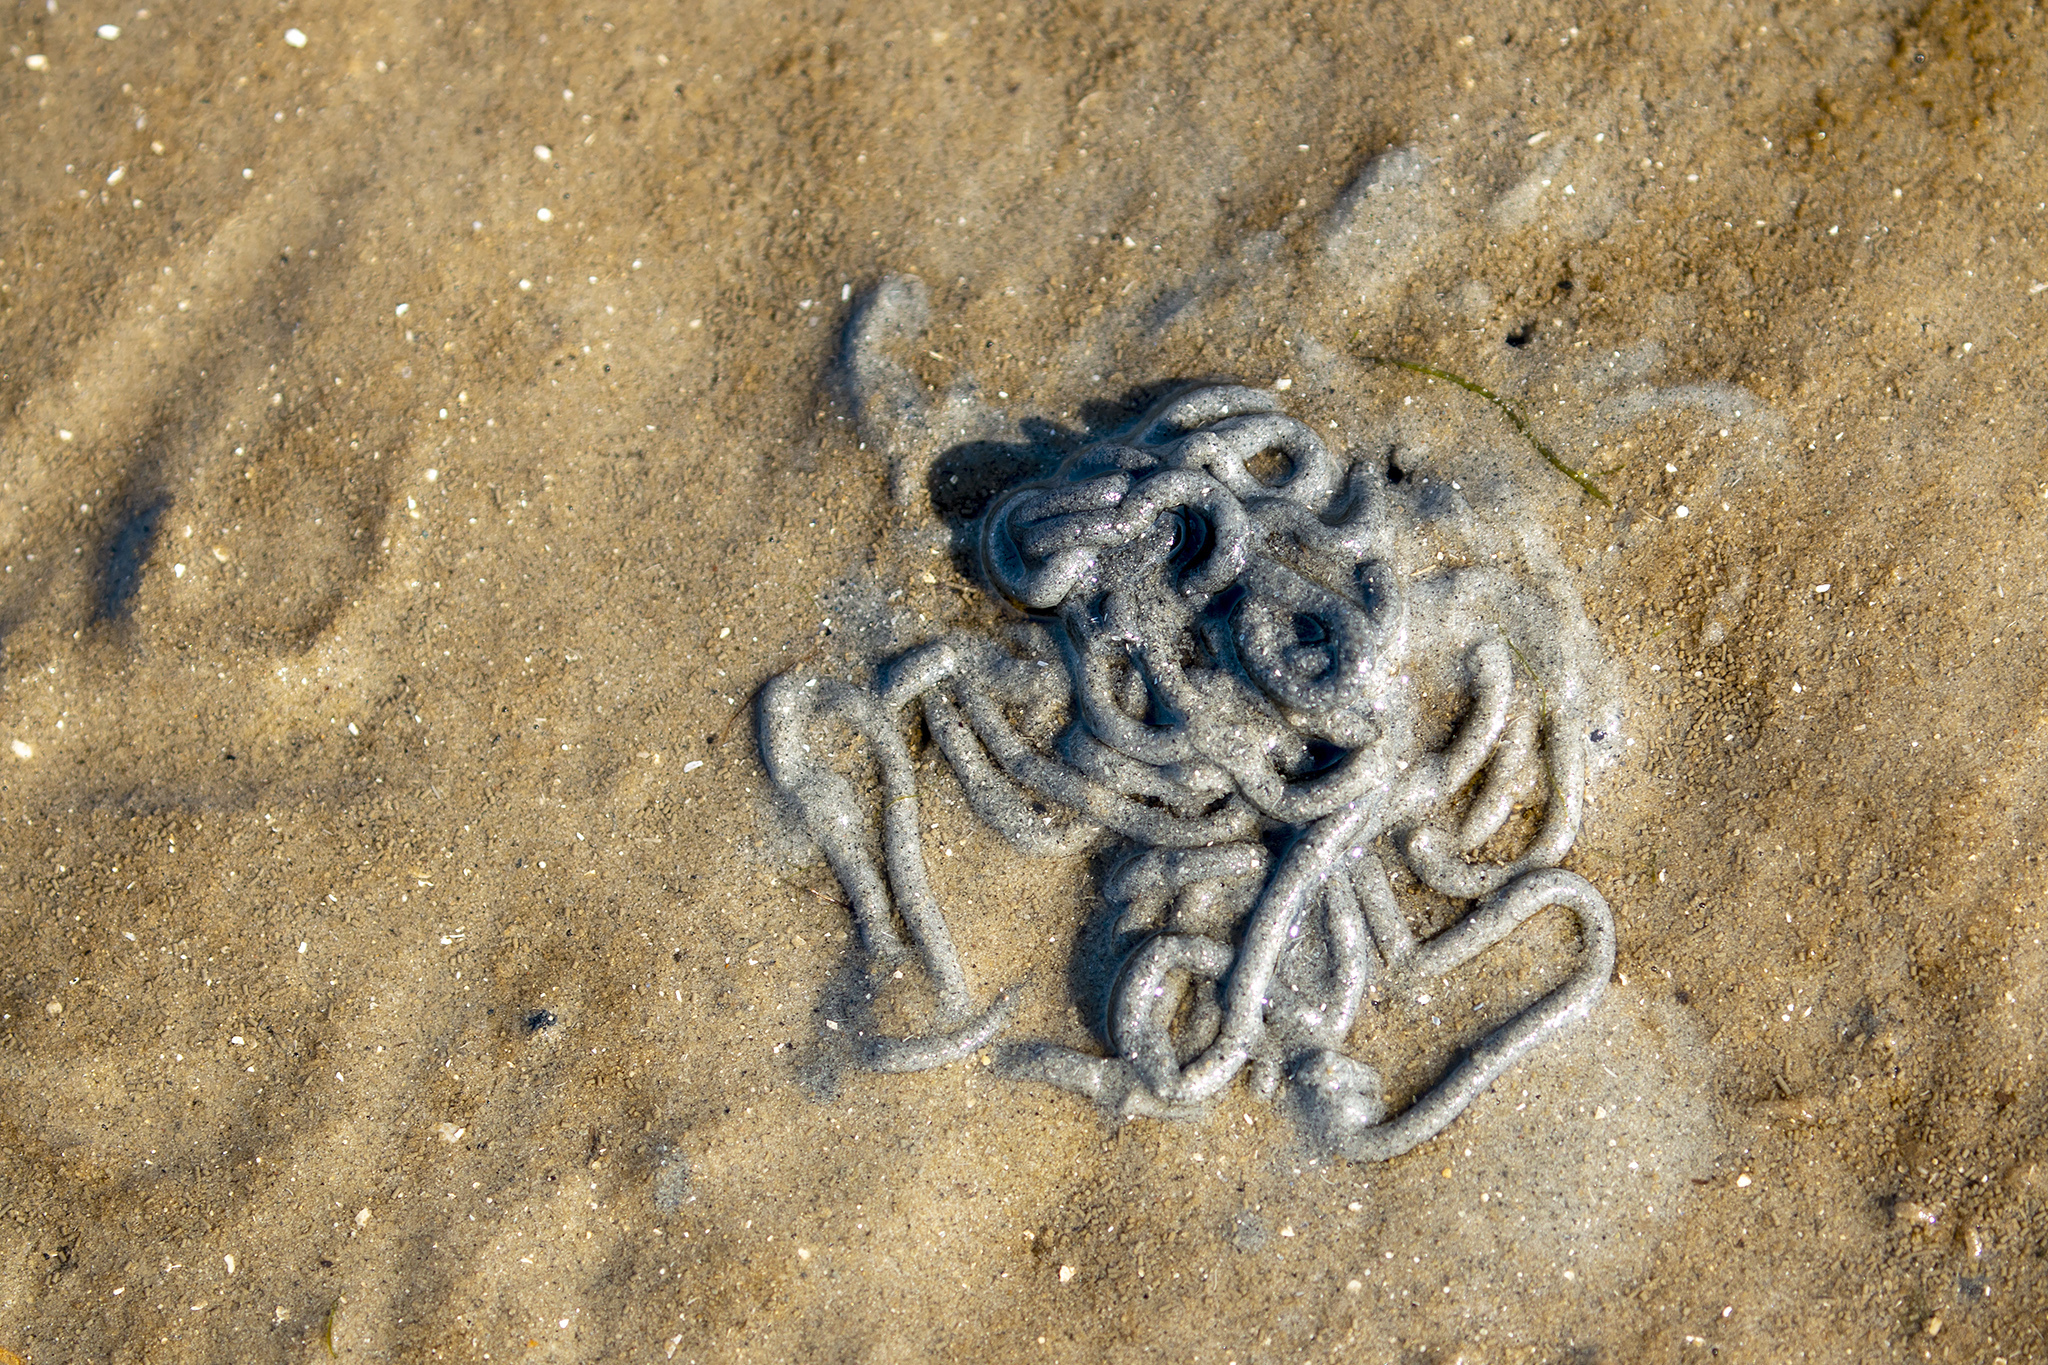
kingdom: Animalia
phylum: Annelida
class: Polychaeta
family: Arenicolidae
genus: Arenicola
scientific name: Arenicola marina
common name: Blow lugworm
